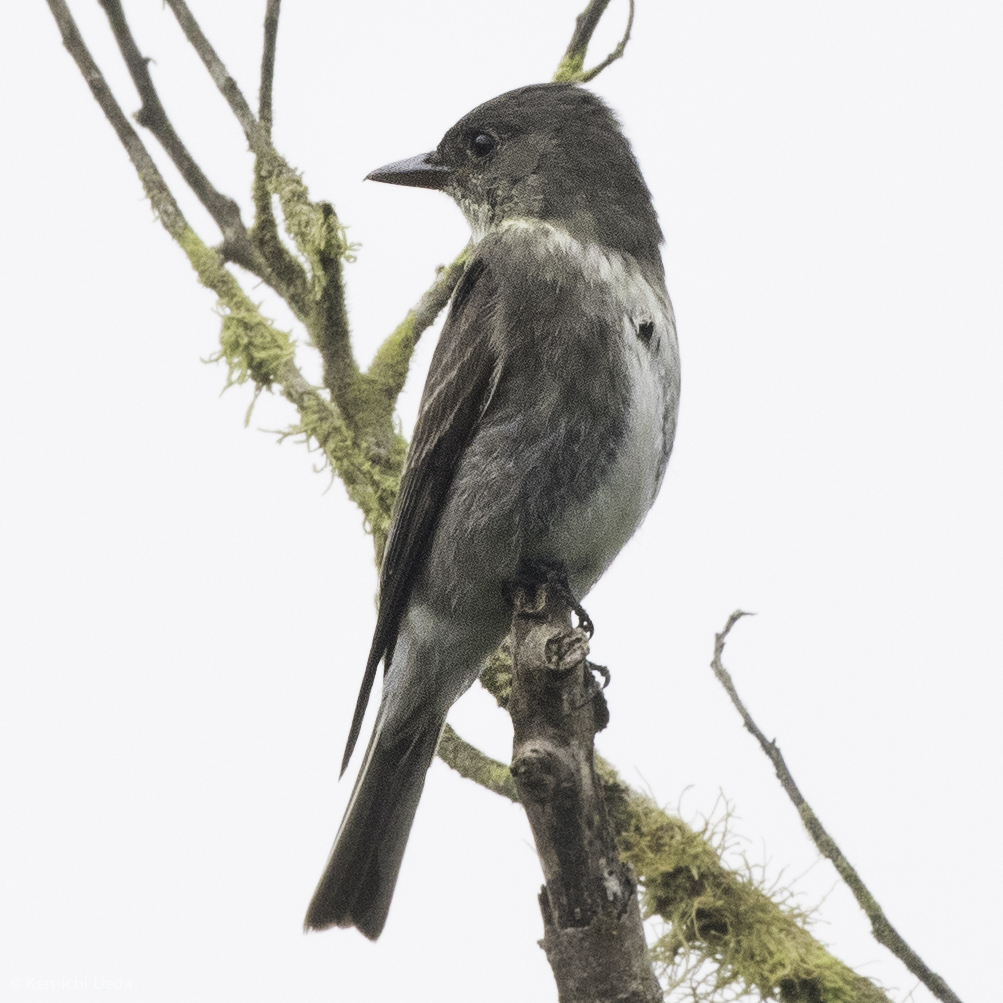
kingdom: Animalia
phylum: Chordata
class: Aves
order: Passeriformes
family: Tyrannidae
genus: Contopus
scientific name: Contopus cooperi
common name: Olive-sided flycatcher
